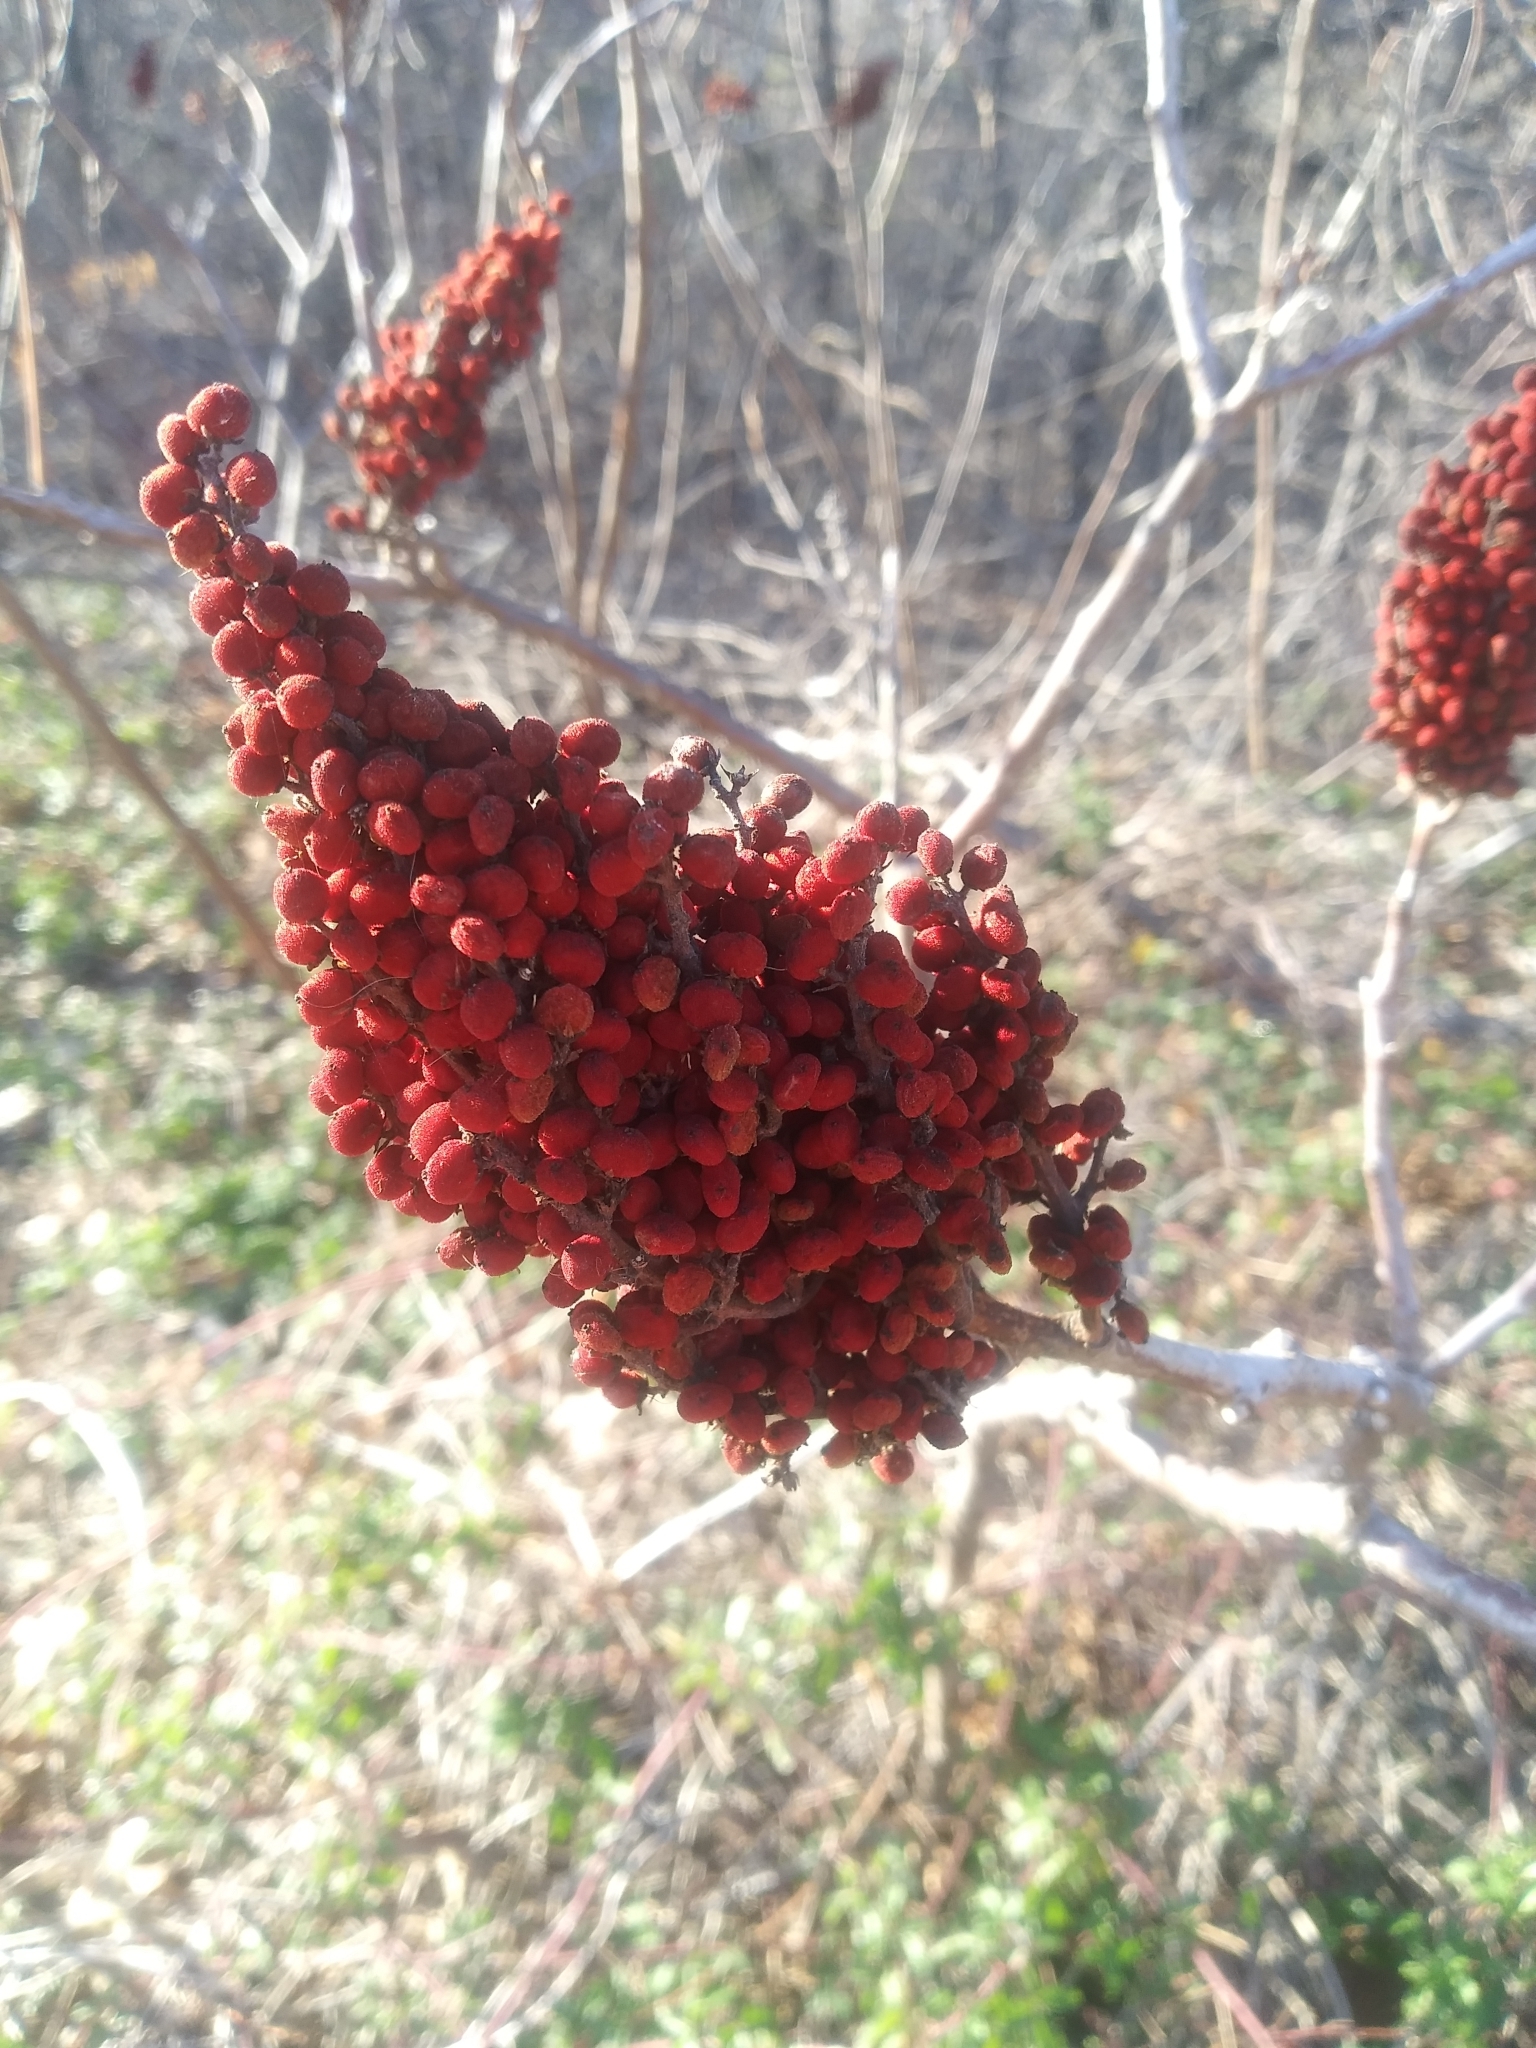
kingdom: Plantae
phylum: Tracheophyta
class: Magnoliopsida
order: Sapindales
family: Anacardiaceae
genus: Rhus
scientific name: Rhus glabra
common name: Scarlet sumac
